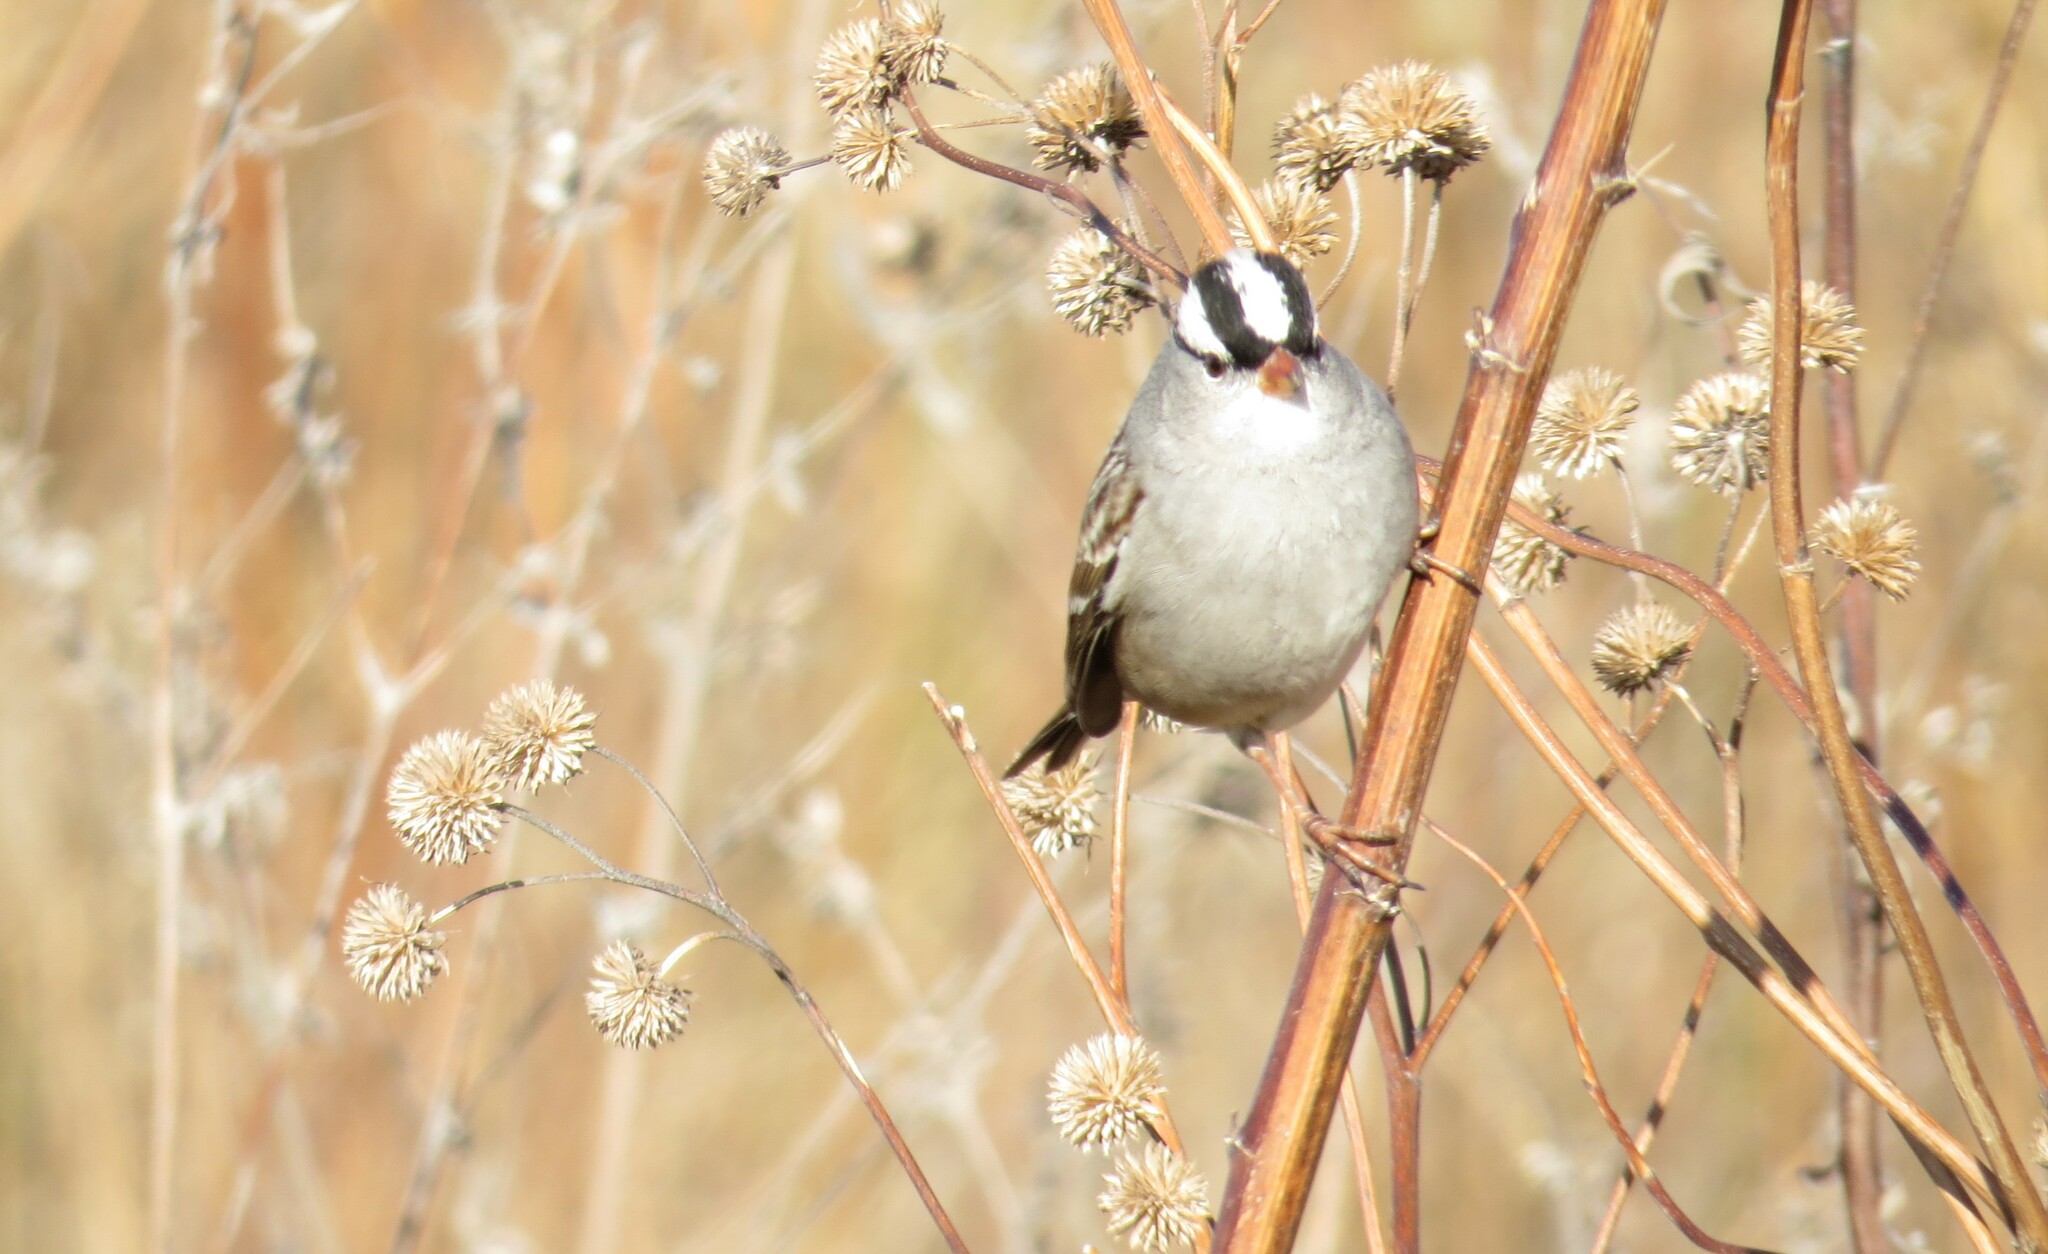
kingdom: Animalia
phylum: Chordata
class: Aves
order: Passeriformes
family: Passerellidae
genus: Zonotrichia
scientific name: Zonotrichia leucophrys
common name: White-crowned sparrow
